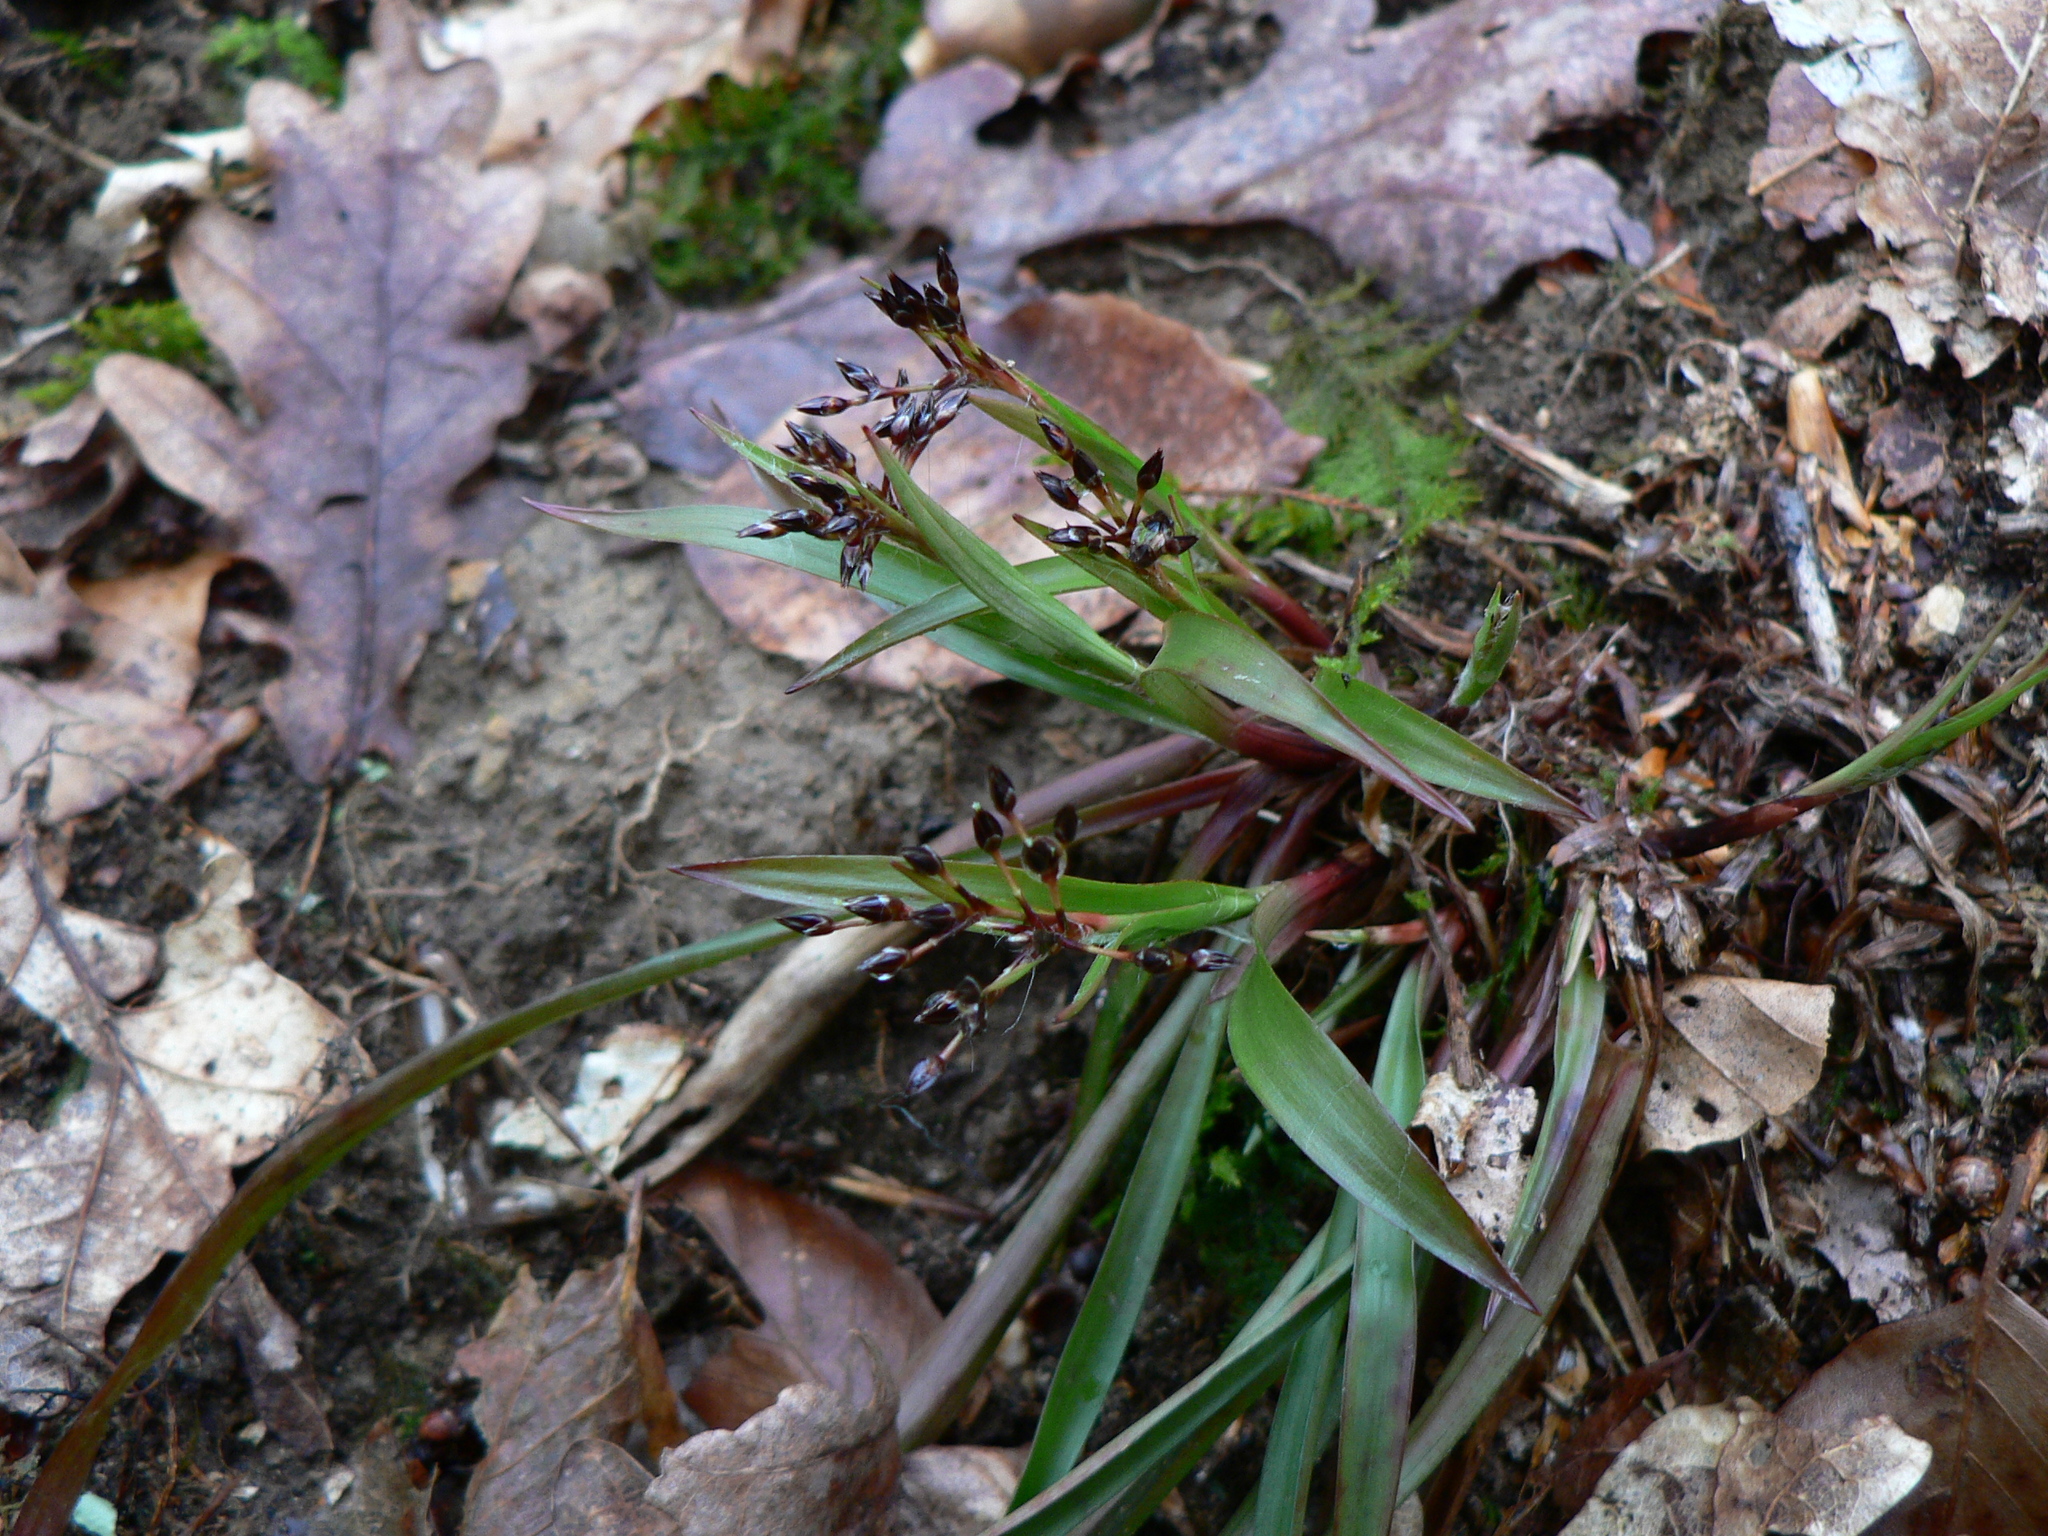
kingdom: Plantae
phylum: Tracheophyta
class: Liliopsida
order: Poales
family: Juncaceae
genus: Luzula
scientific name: Luzula pilosa
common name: Hairy wood-rush
